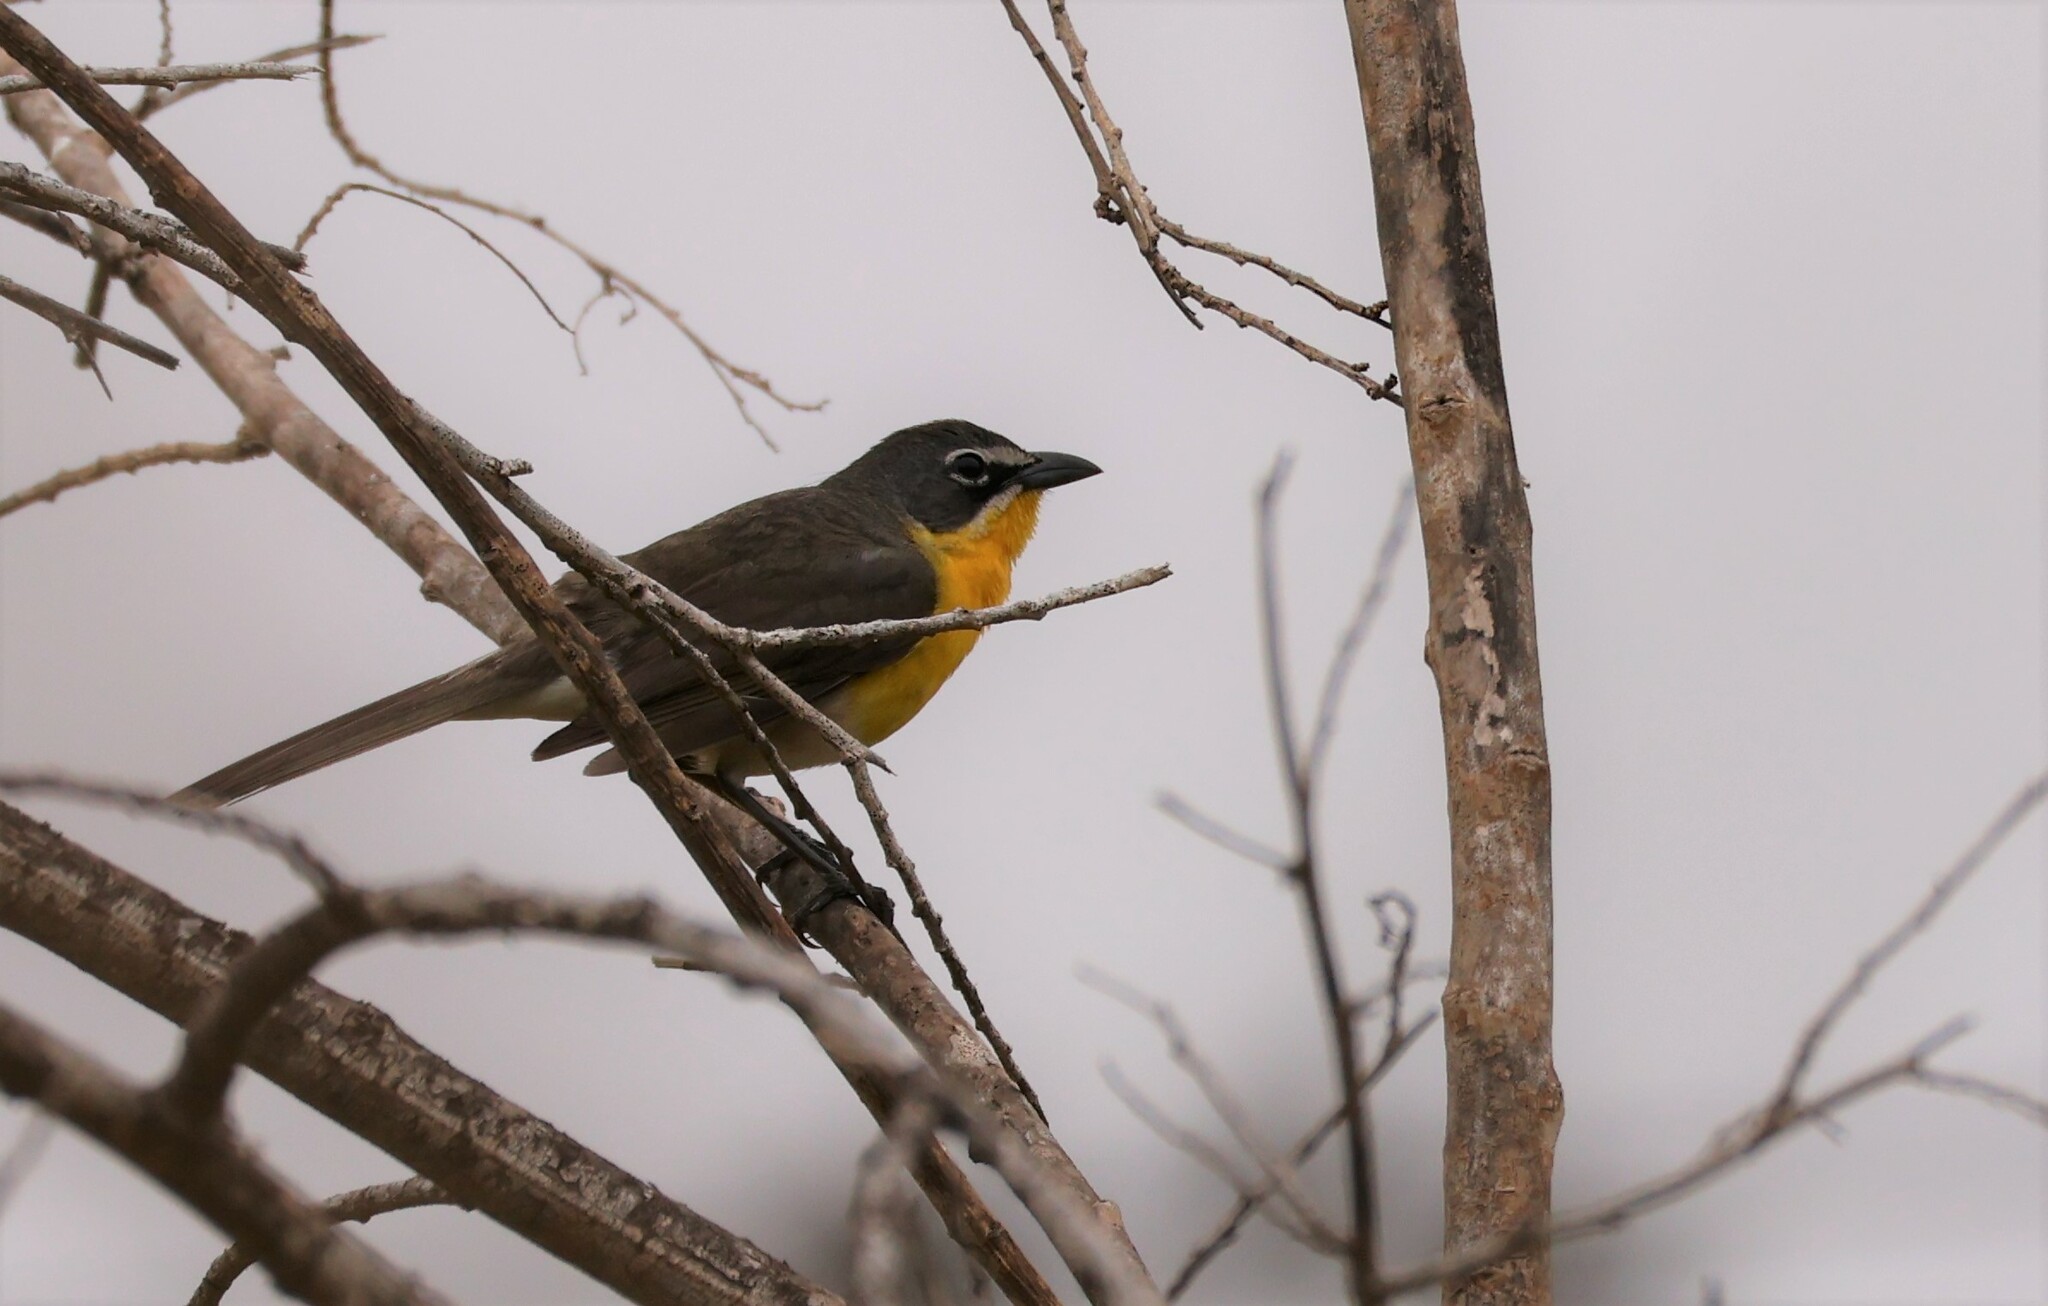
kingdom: Animalia
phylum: Chordata
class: Aves
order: Passeriformes
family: Parulidae
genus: Icteria
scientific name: Icteria virens
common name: Yellow-breasted chat
